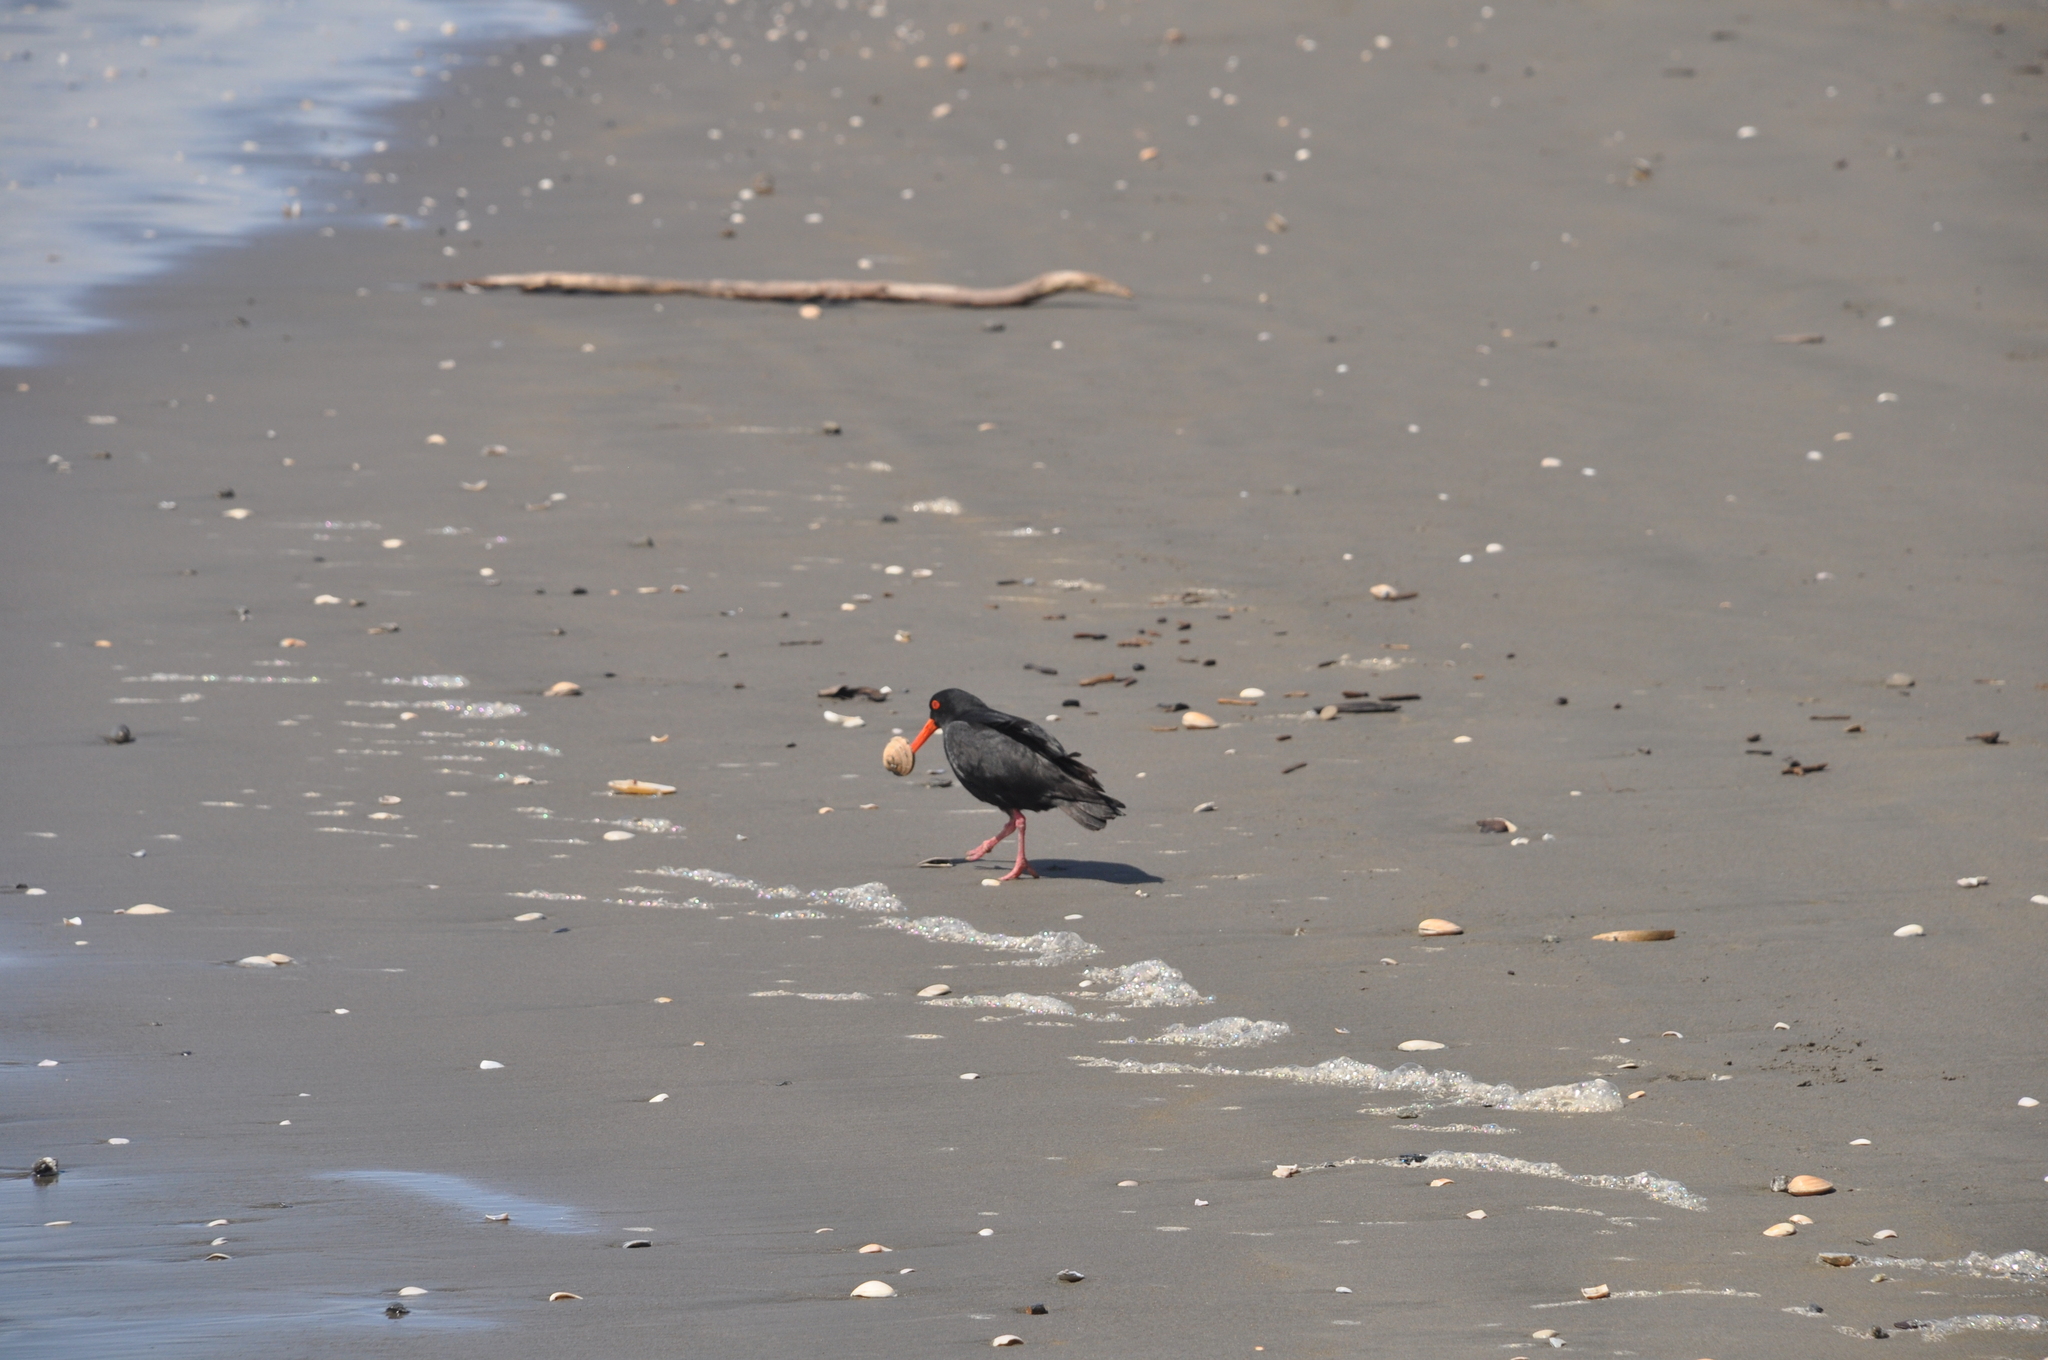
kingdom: Animalia
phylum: Chordata
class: Aves
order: Charadriiformes
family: Haematopodidae
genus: Haematopus
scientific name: Haematopus unicolor
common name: Variable oystercatcher
